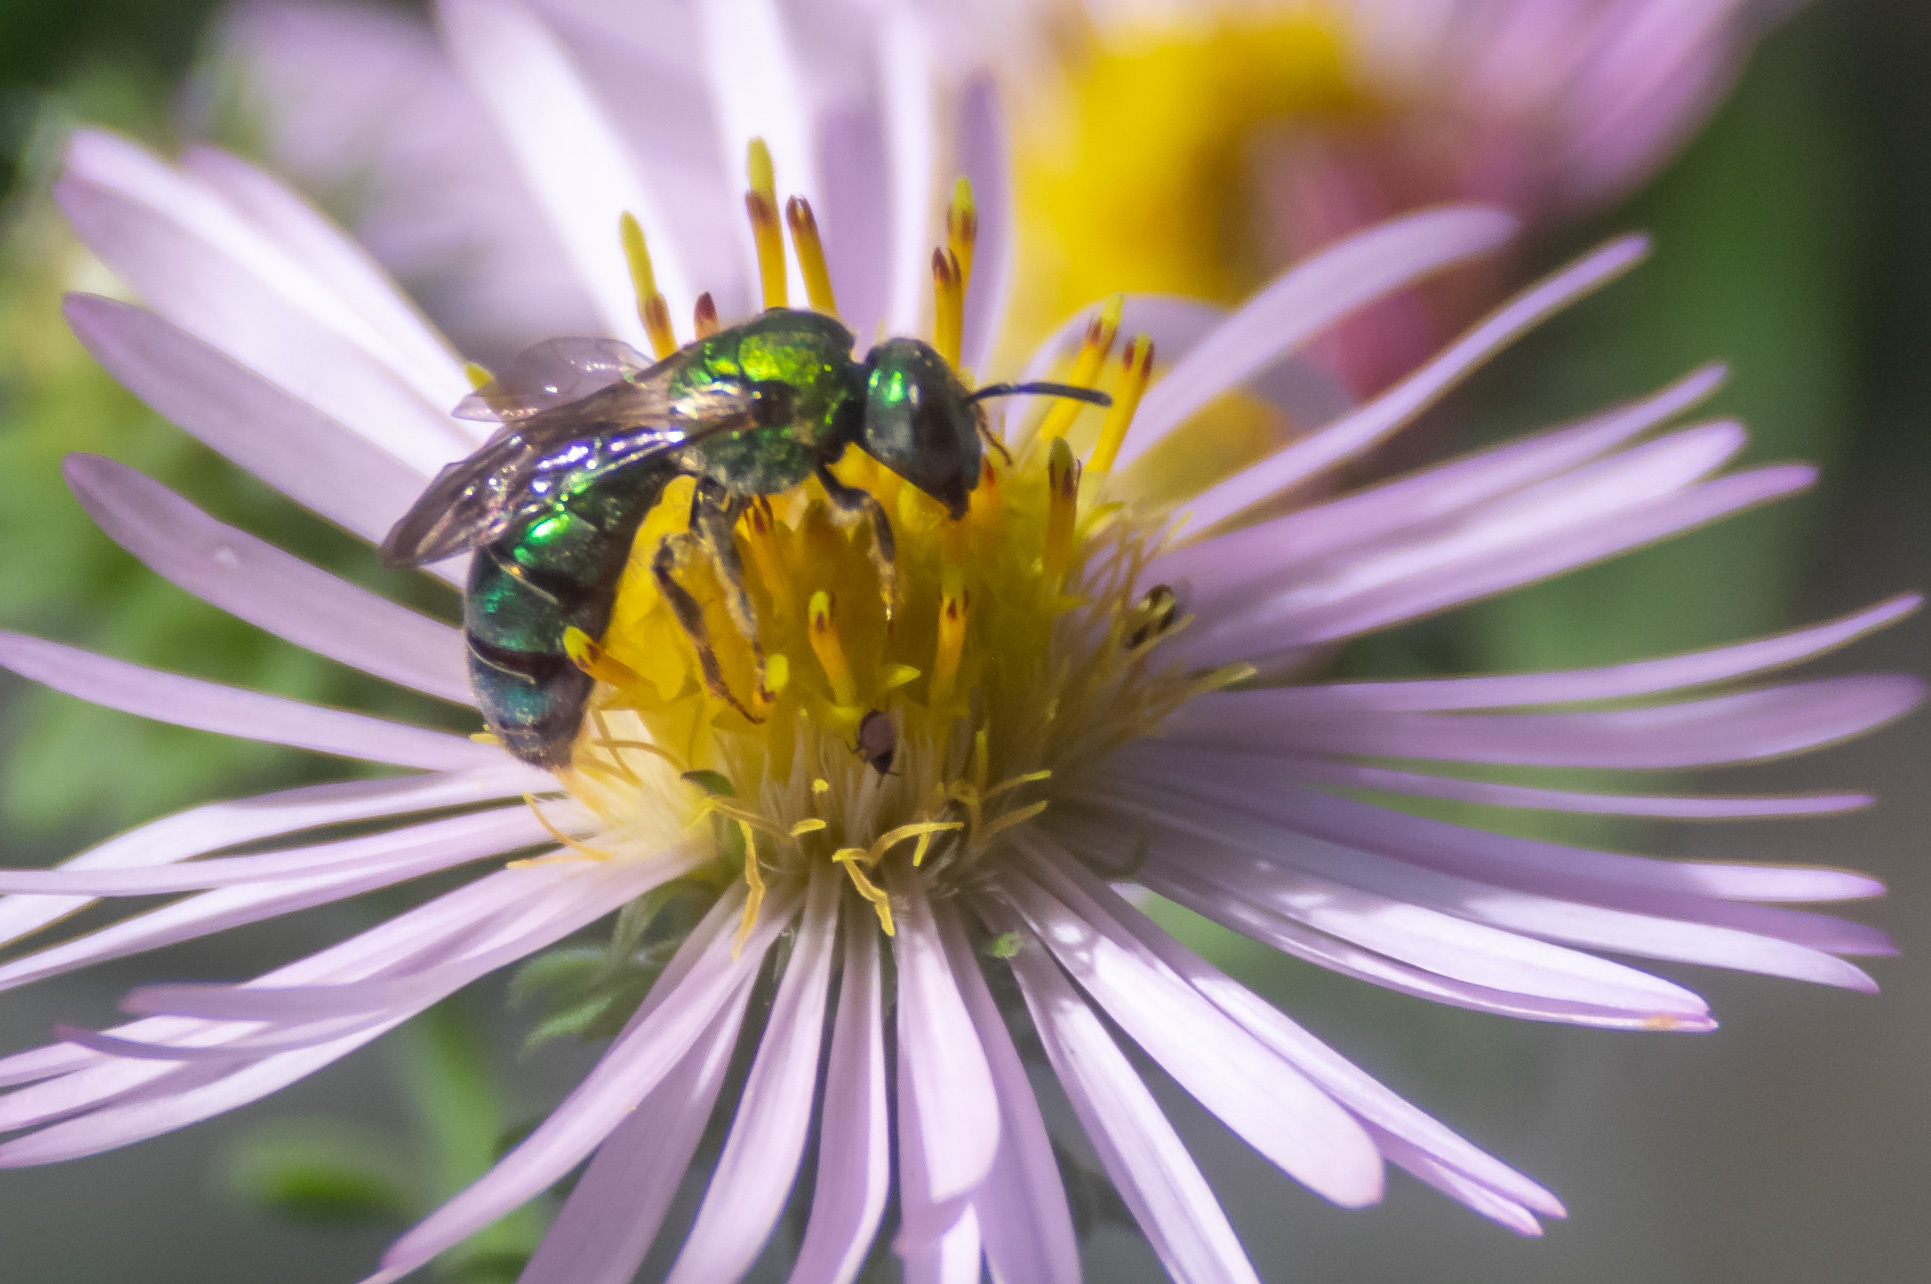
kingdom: Animalia
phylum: Arthropoda
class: Insecta
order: Hymenoptera
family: Halictidae
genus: Augochlora
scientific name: Augochlora pura
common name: Pure green sweat bee
